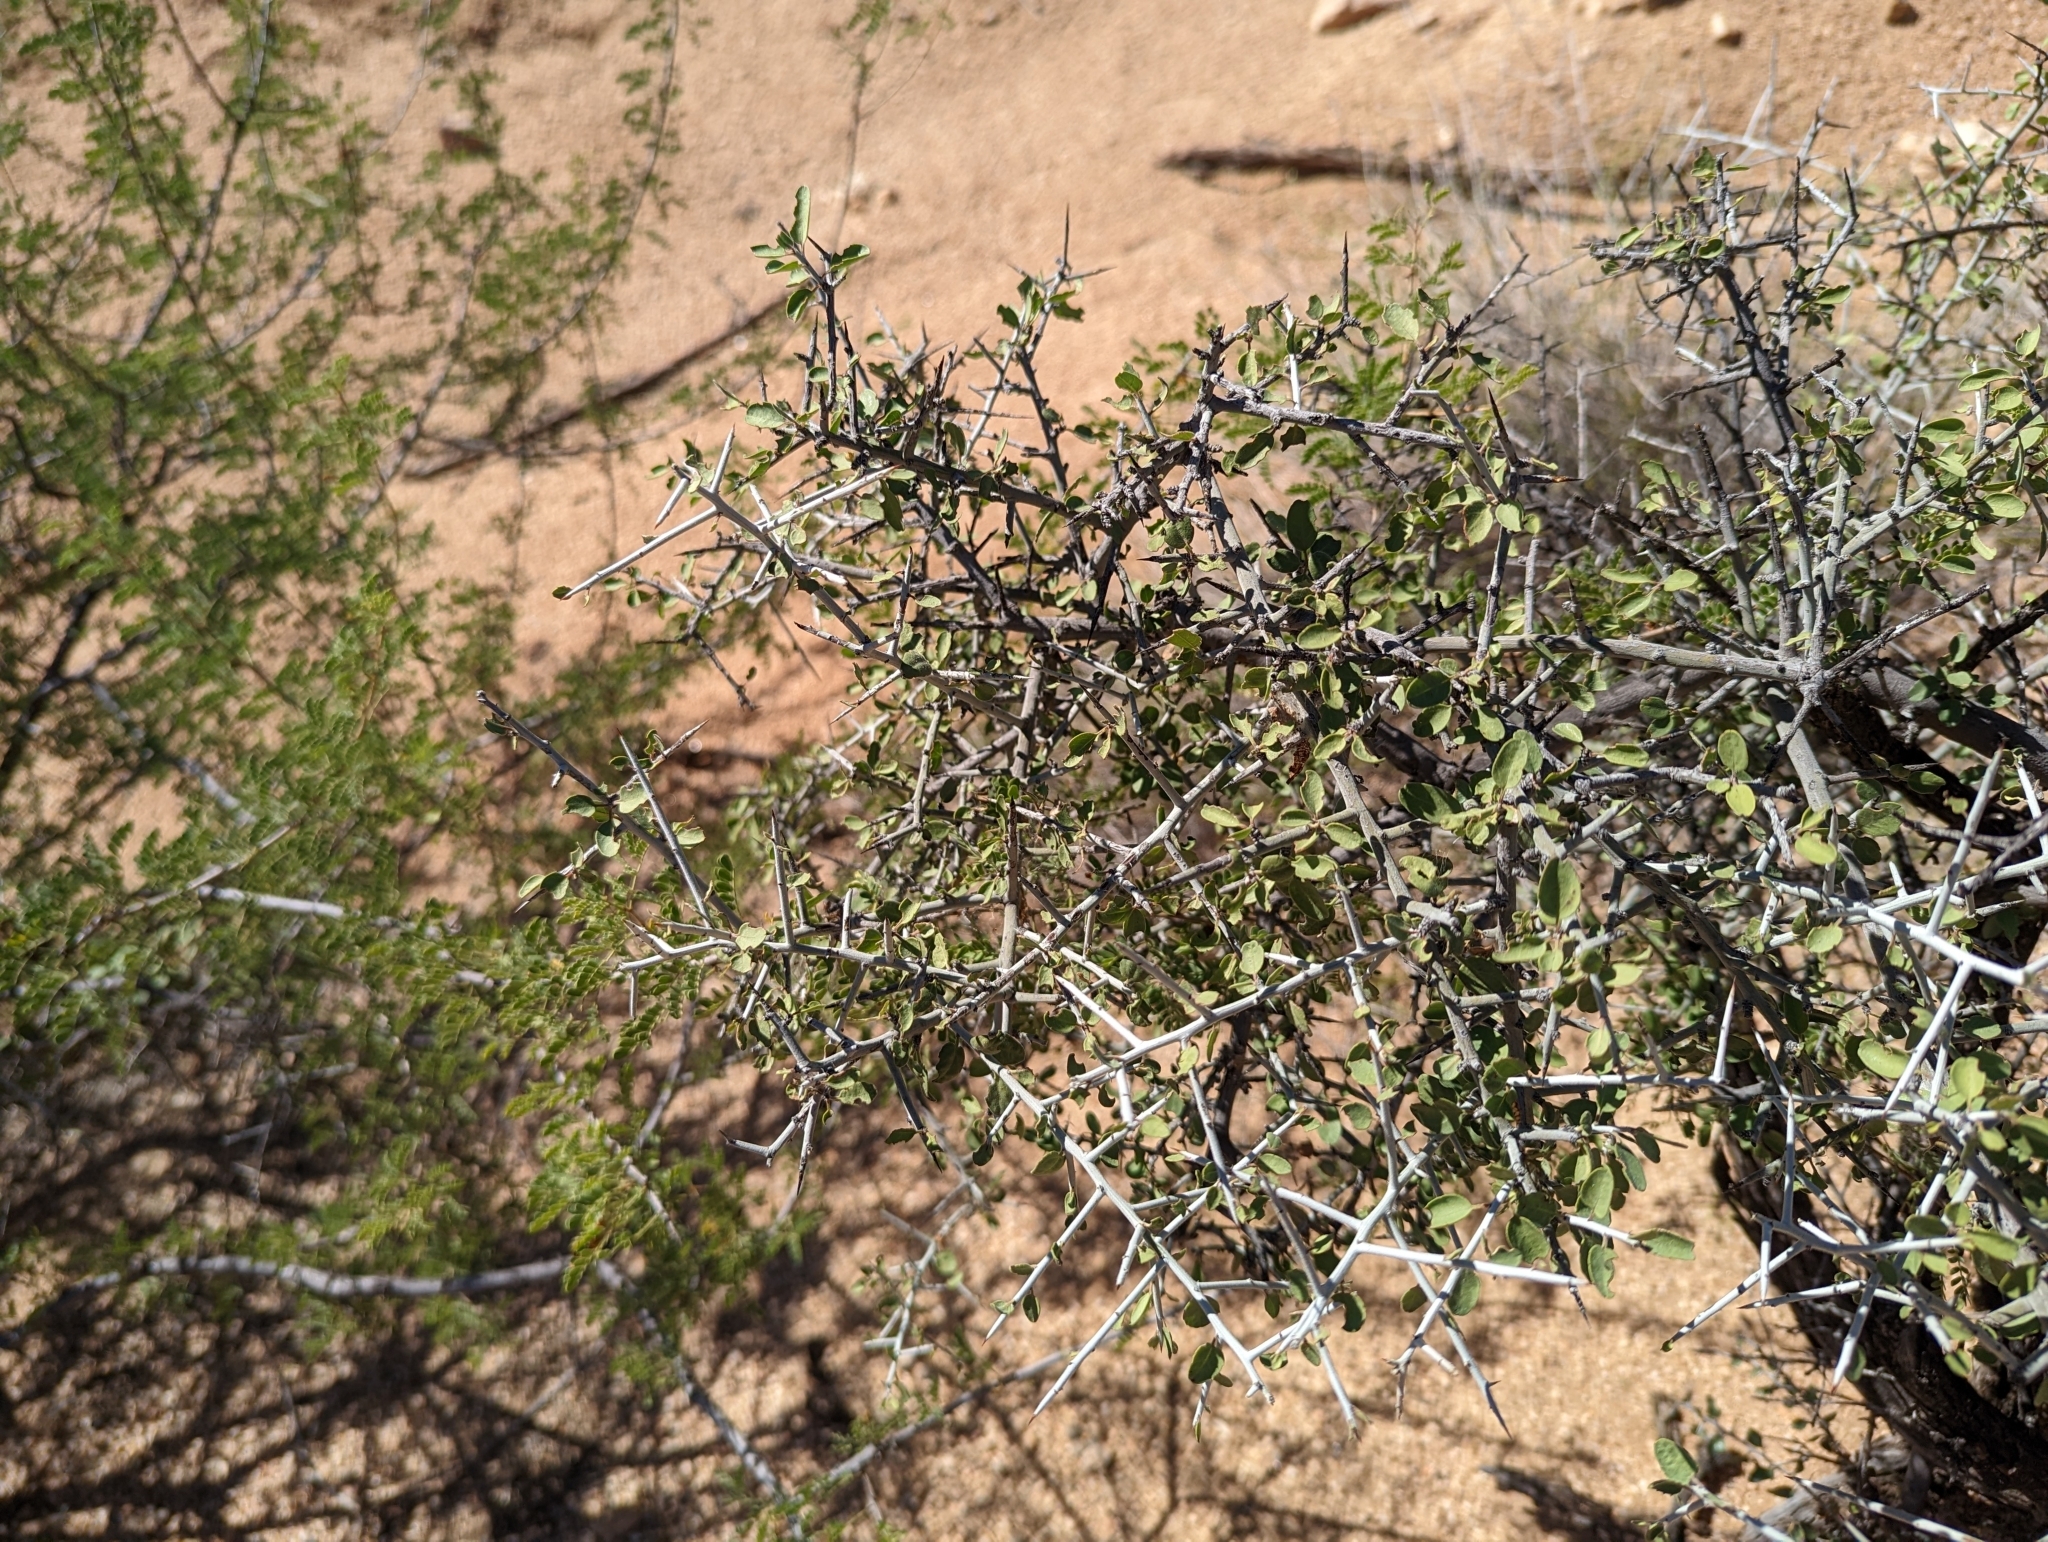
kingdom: Plantae
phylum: Tracheophyta
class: Magnoliopsida
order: Rosales
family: Rhamnaceae
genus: Sarcomphalus
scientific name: Sarcomphalus obtusifolius
